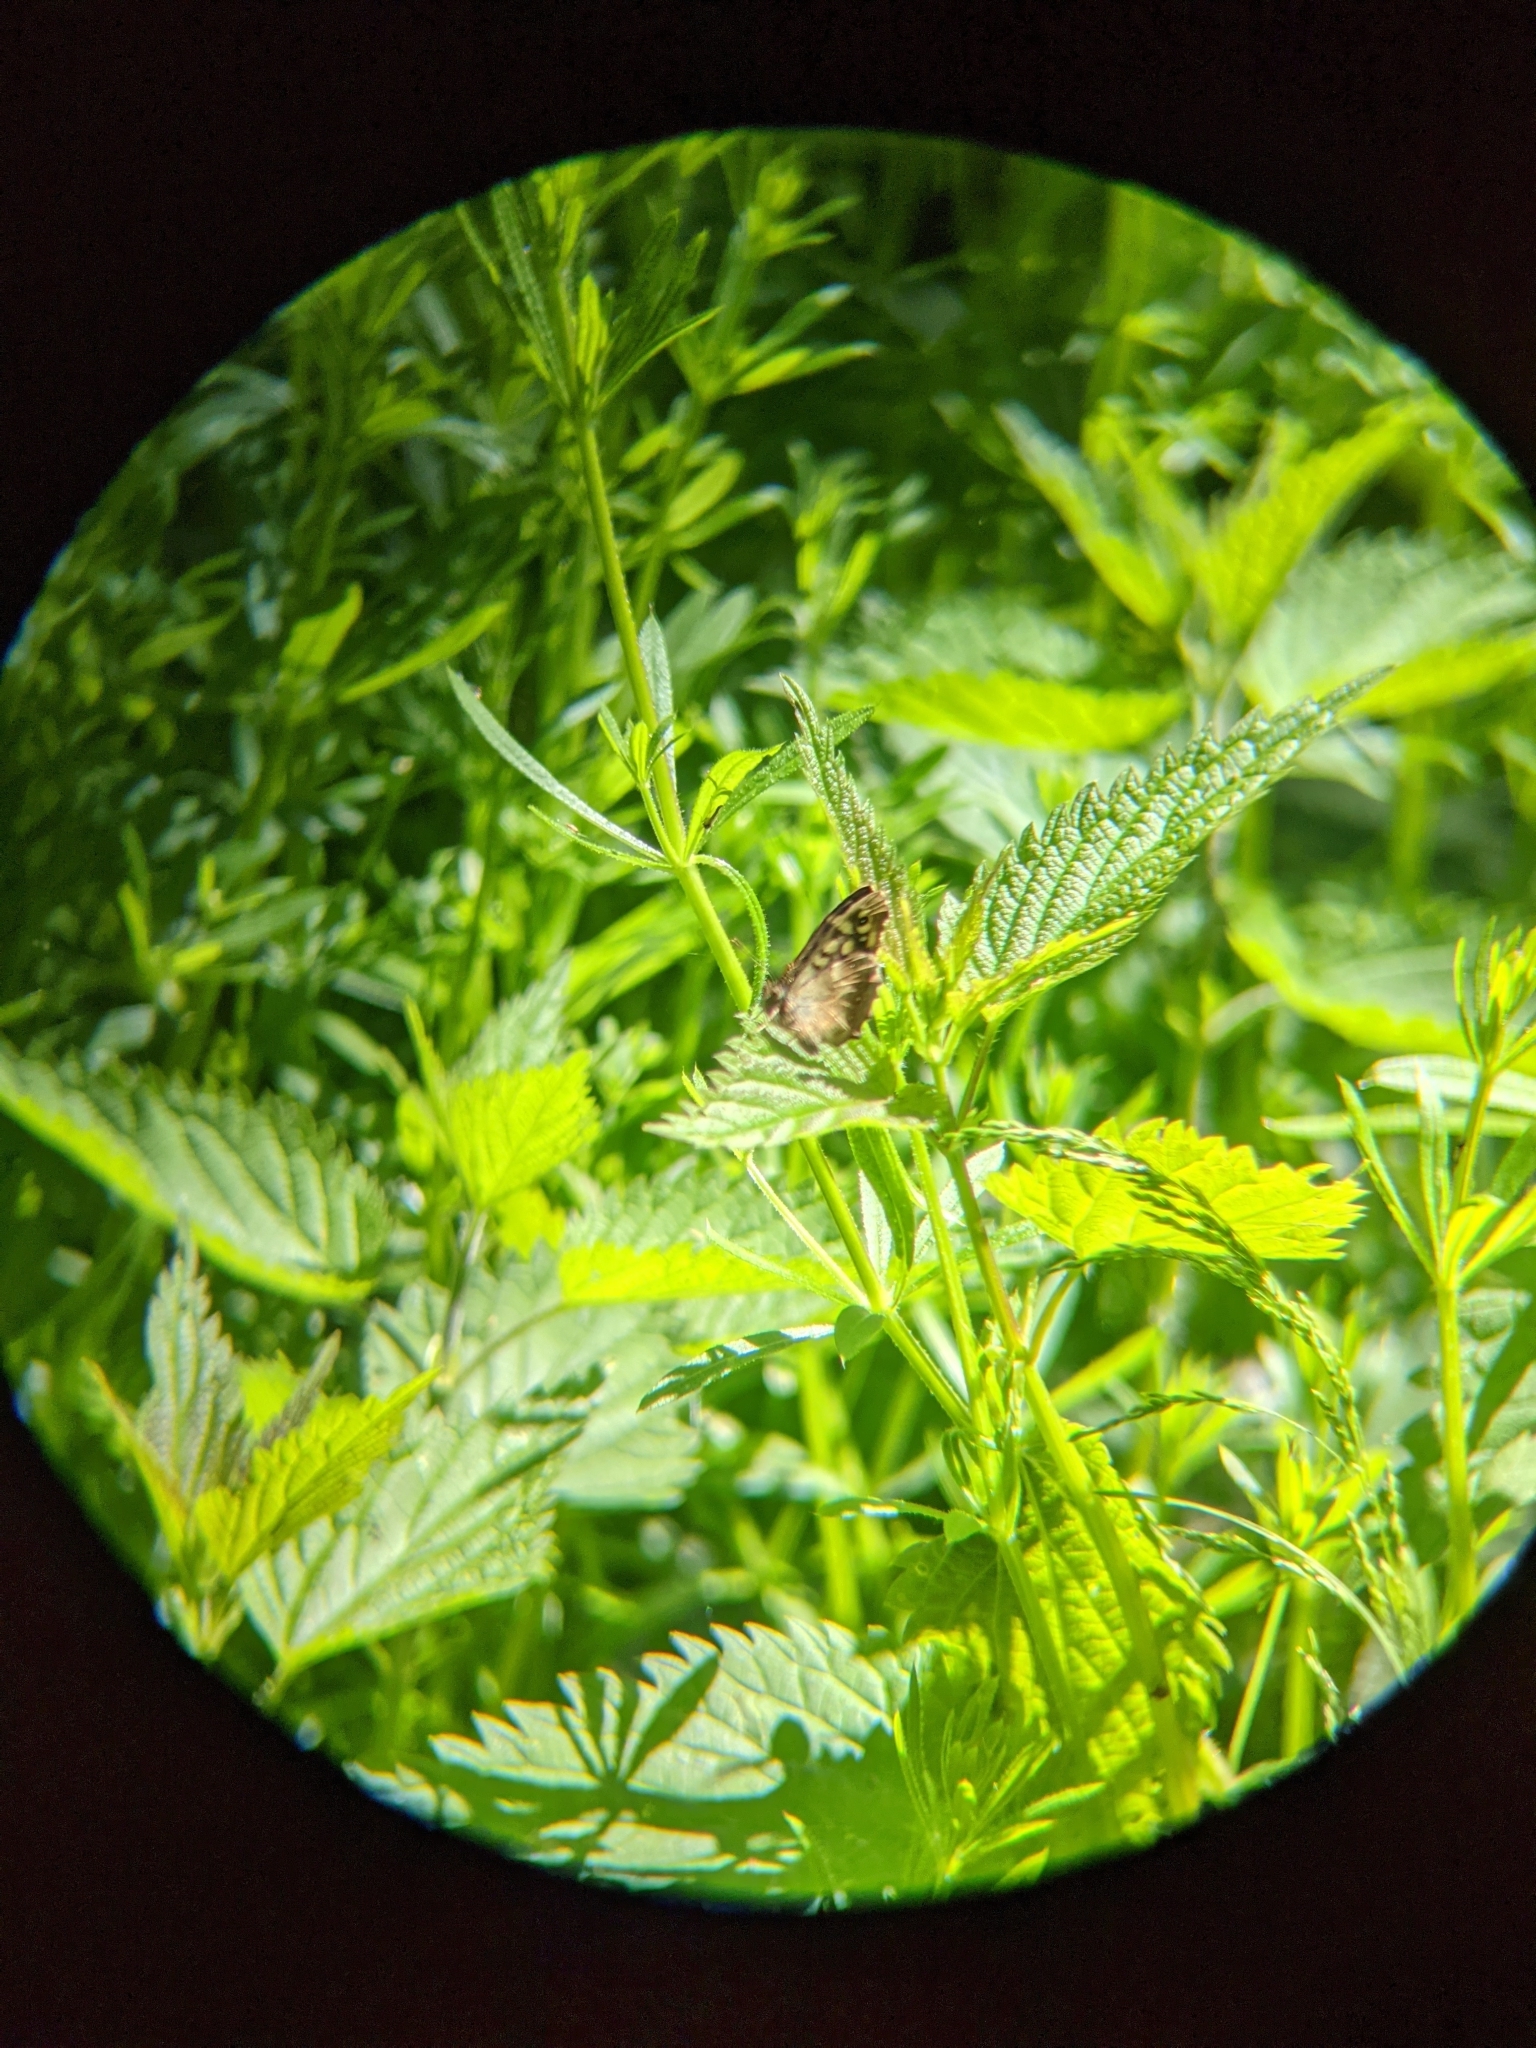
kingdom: Animalia
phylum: Arthropoda
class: Insecta
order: Lepidoptera
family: Nymphalidae
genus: Pararge
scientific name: Pararge aegeria
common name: Speckled wood
